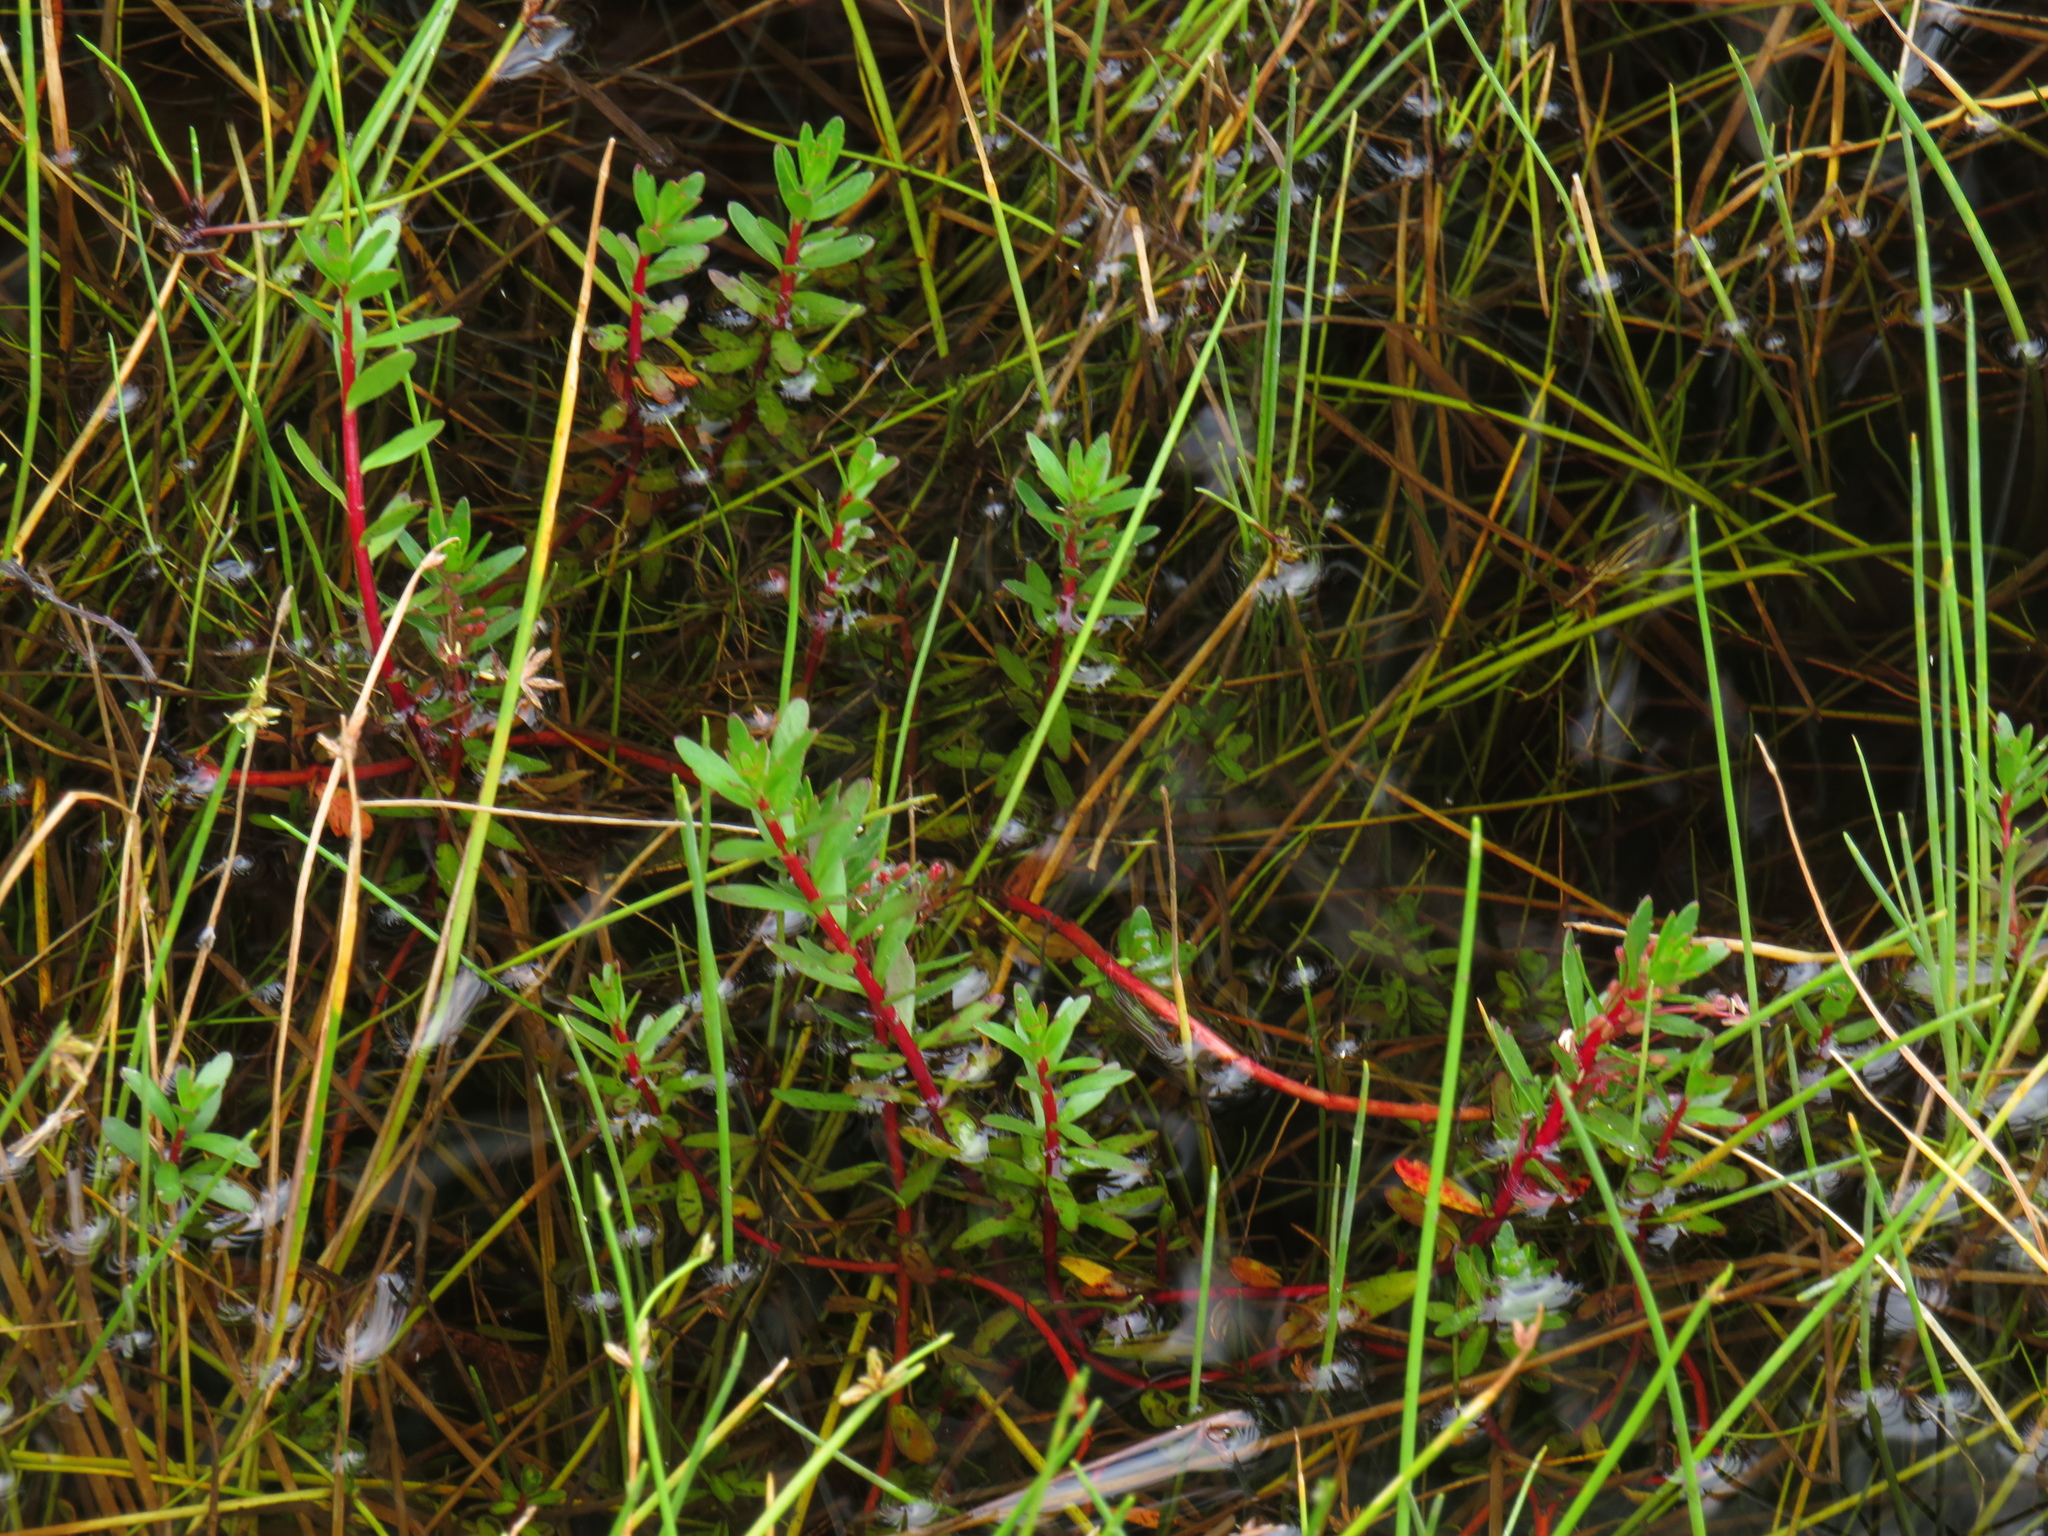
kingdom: Plantae
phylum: Tracheophyta
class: Magnoliopsida
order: Saxifragales
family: Haloragaceae
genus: Laurembergia
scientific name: Laurembergia repens
